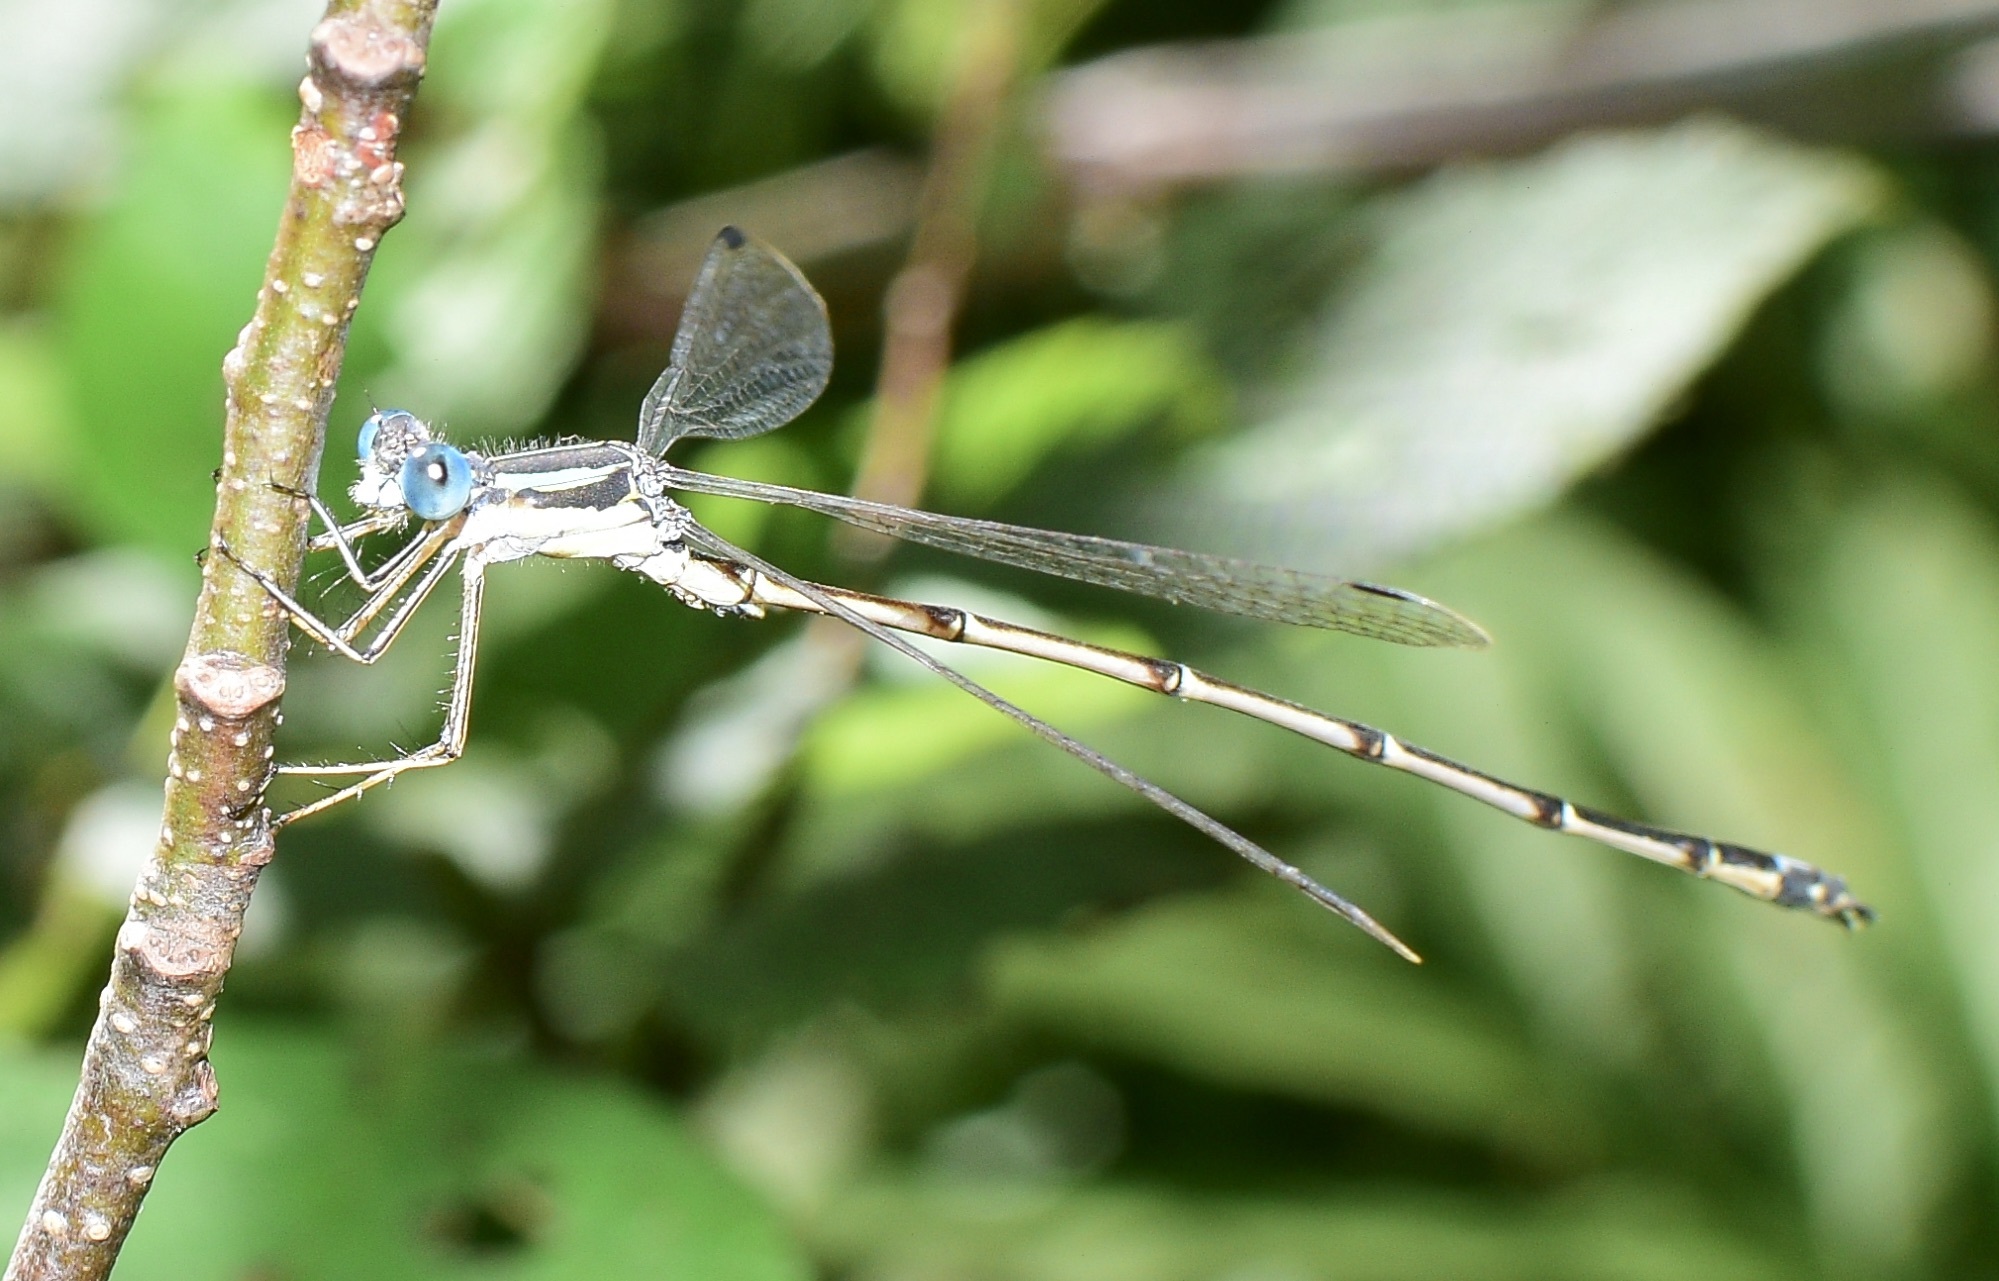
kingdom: Animalia
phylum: Arthropoda
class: Insecta
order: Odonata
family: Lestidae
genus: Lestes
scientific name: Lestes rectangularis
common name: Slender spreadwing
